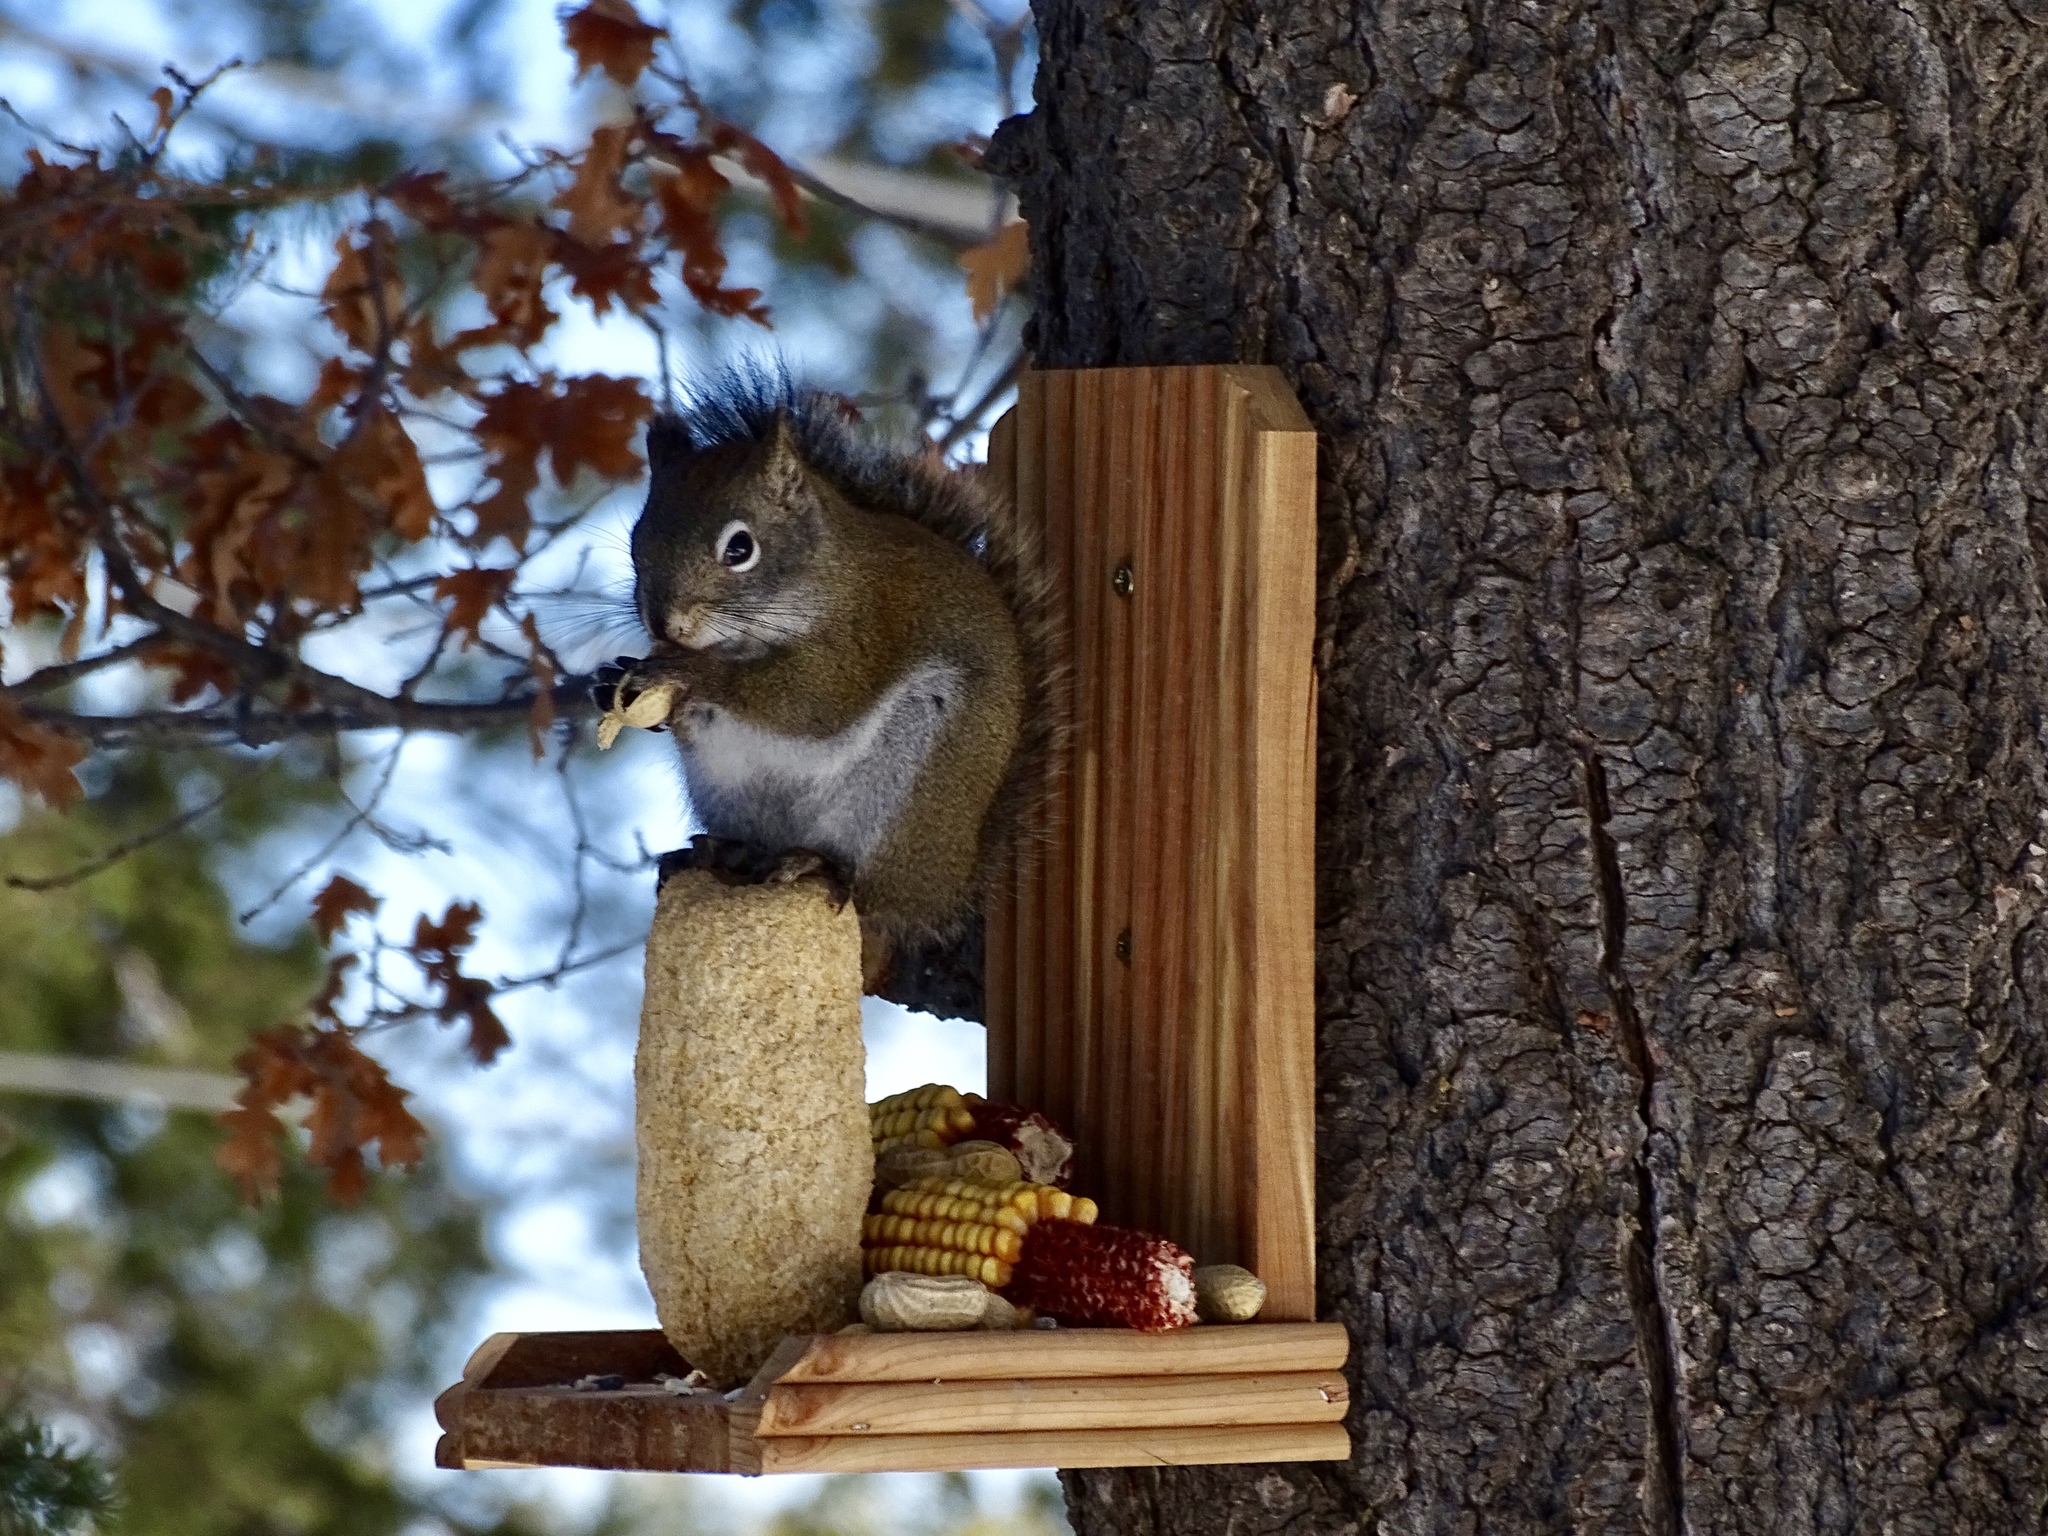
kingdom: Animalia
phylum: Chordata
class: Mammalia
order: Rodentia
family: Sciuridae
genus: Tamiasciurus
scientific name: Tamiasciurus hudsonicus
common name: Red squirrel
